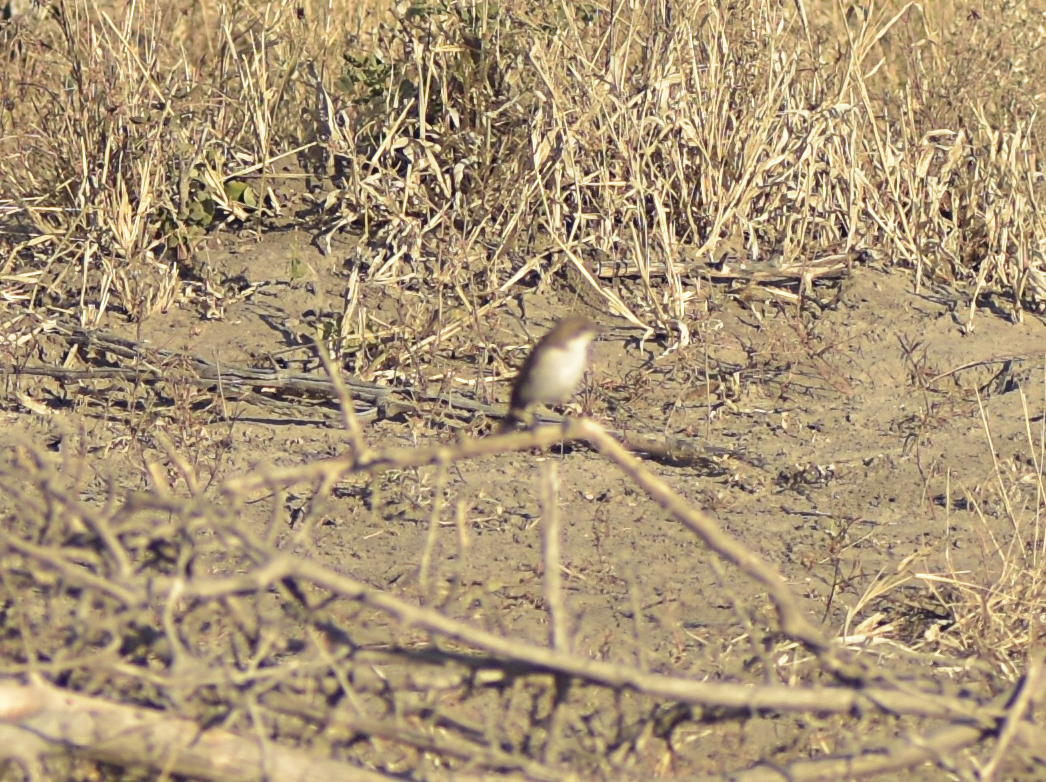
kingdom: Animalia
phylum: Chordata
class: Aves
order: Passeriformes
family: Muscicapidae
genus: Bradornis
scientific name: Bradornis mariquensis
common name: Marico flycatcher
